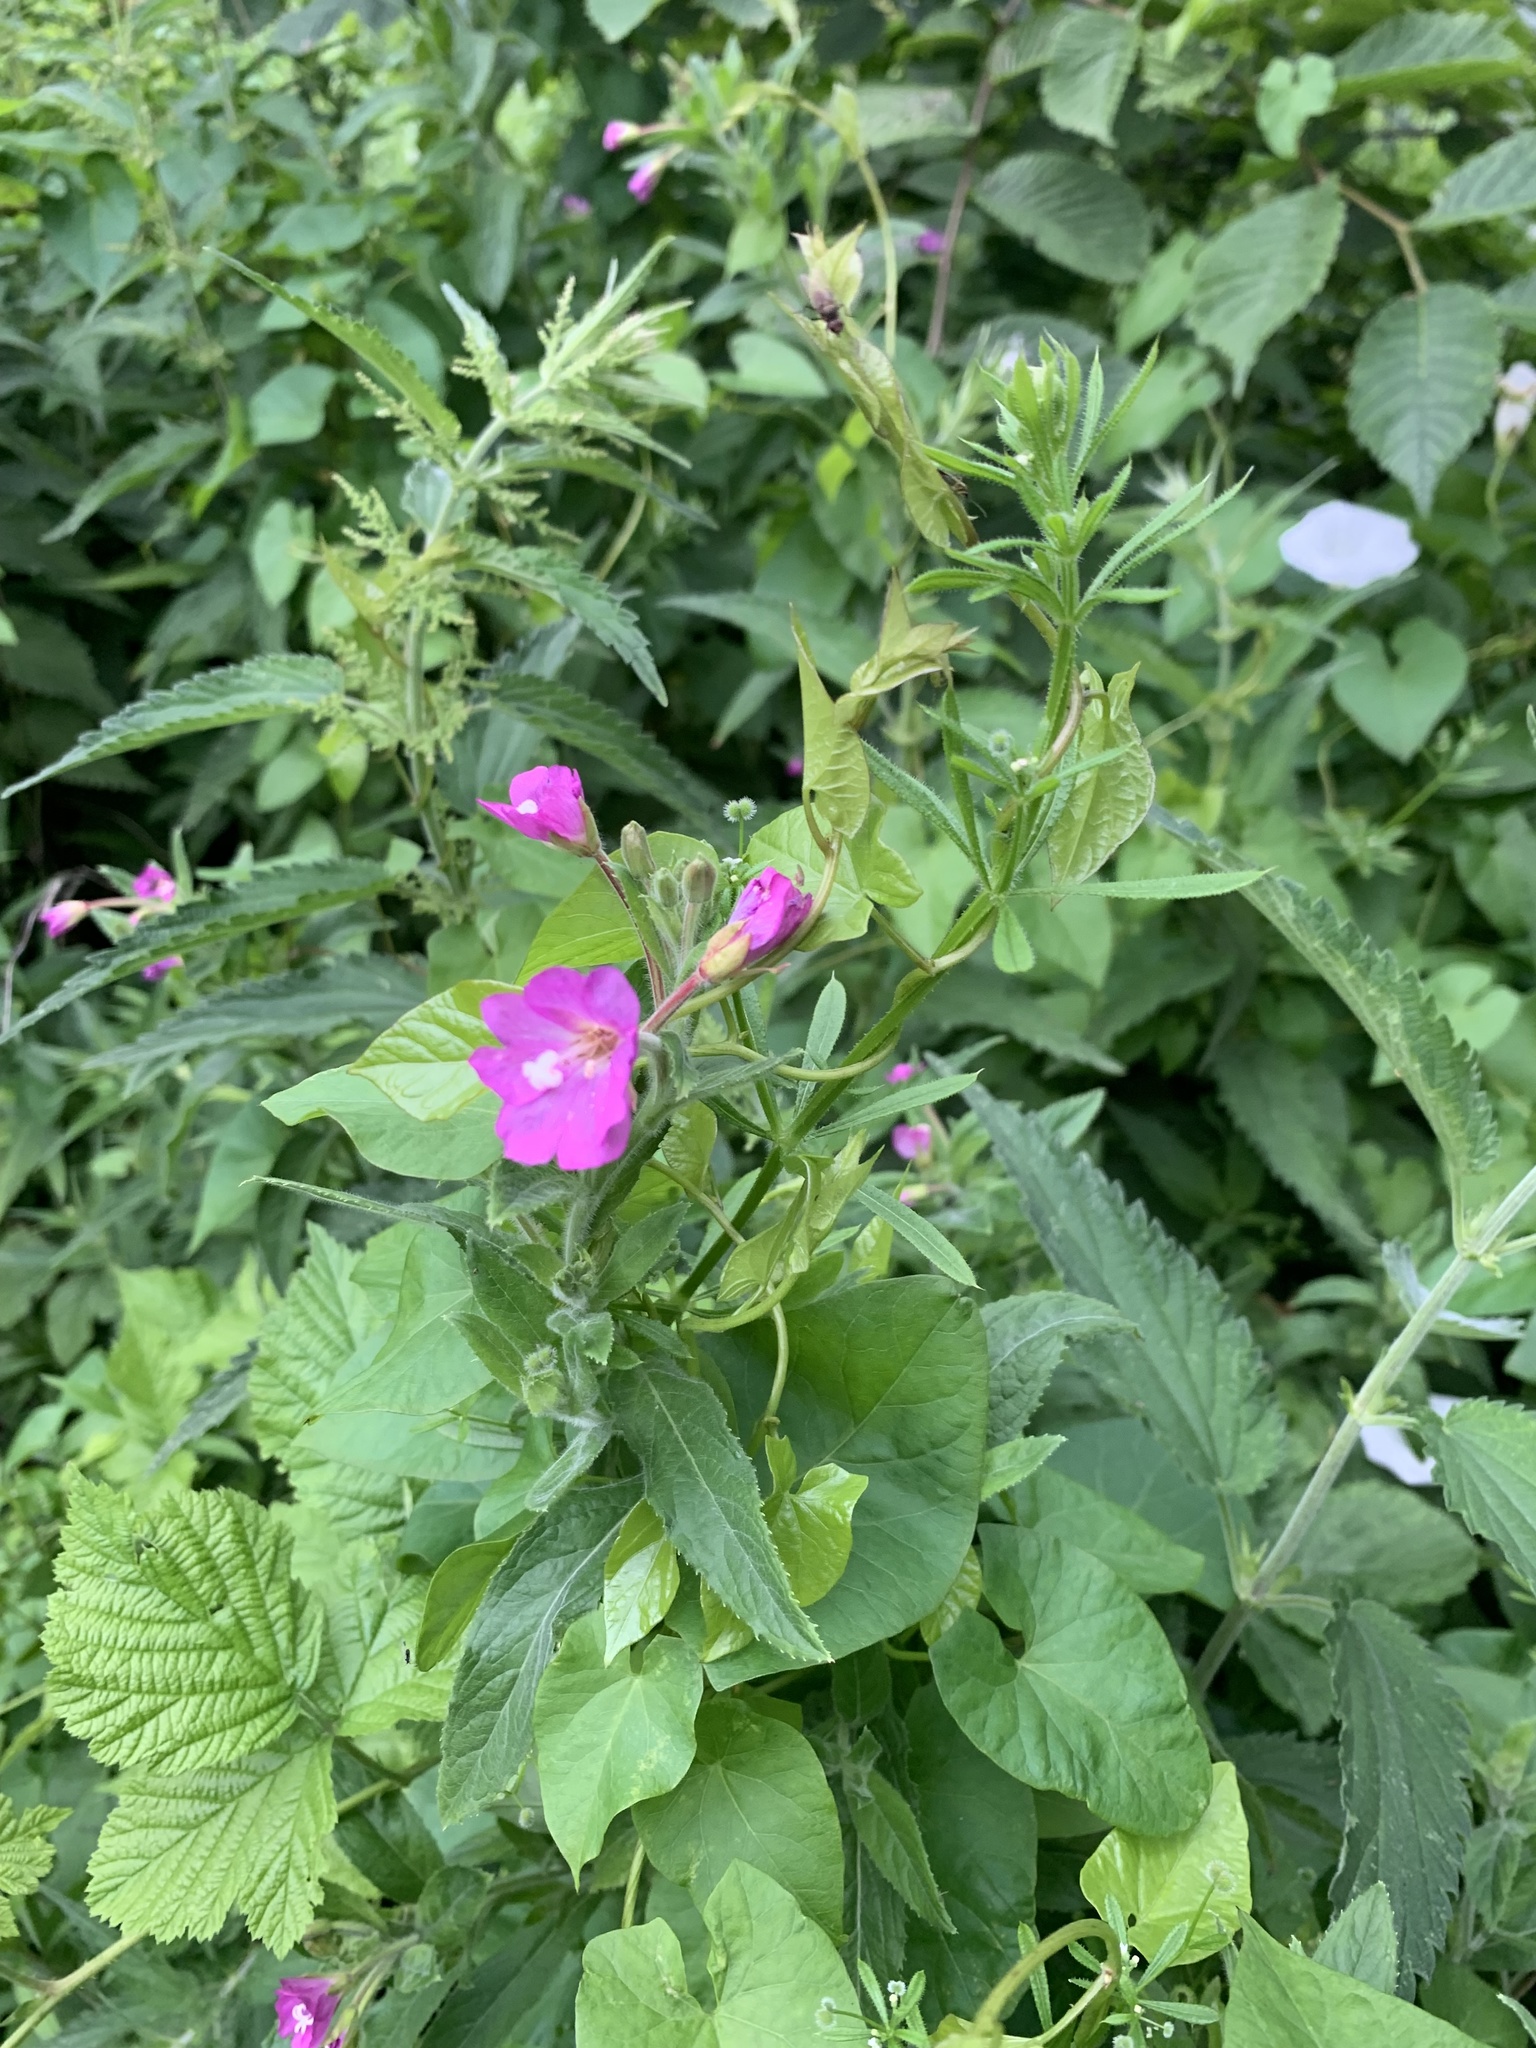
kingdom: Plantae
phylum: Tracheophyta
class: Magnoliopsida
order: Myrtales
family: Onagraceae
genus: Epilobium
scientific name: Epilobium hirsutum
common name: Great willowherb
